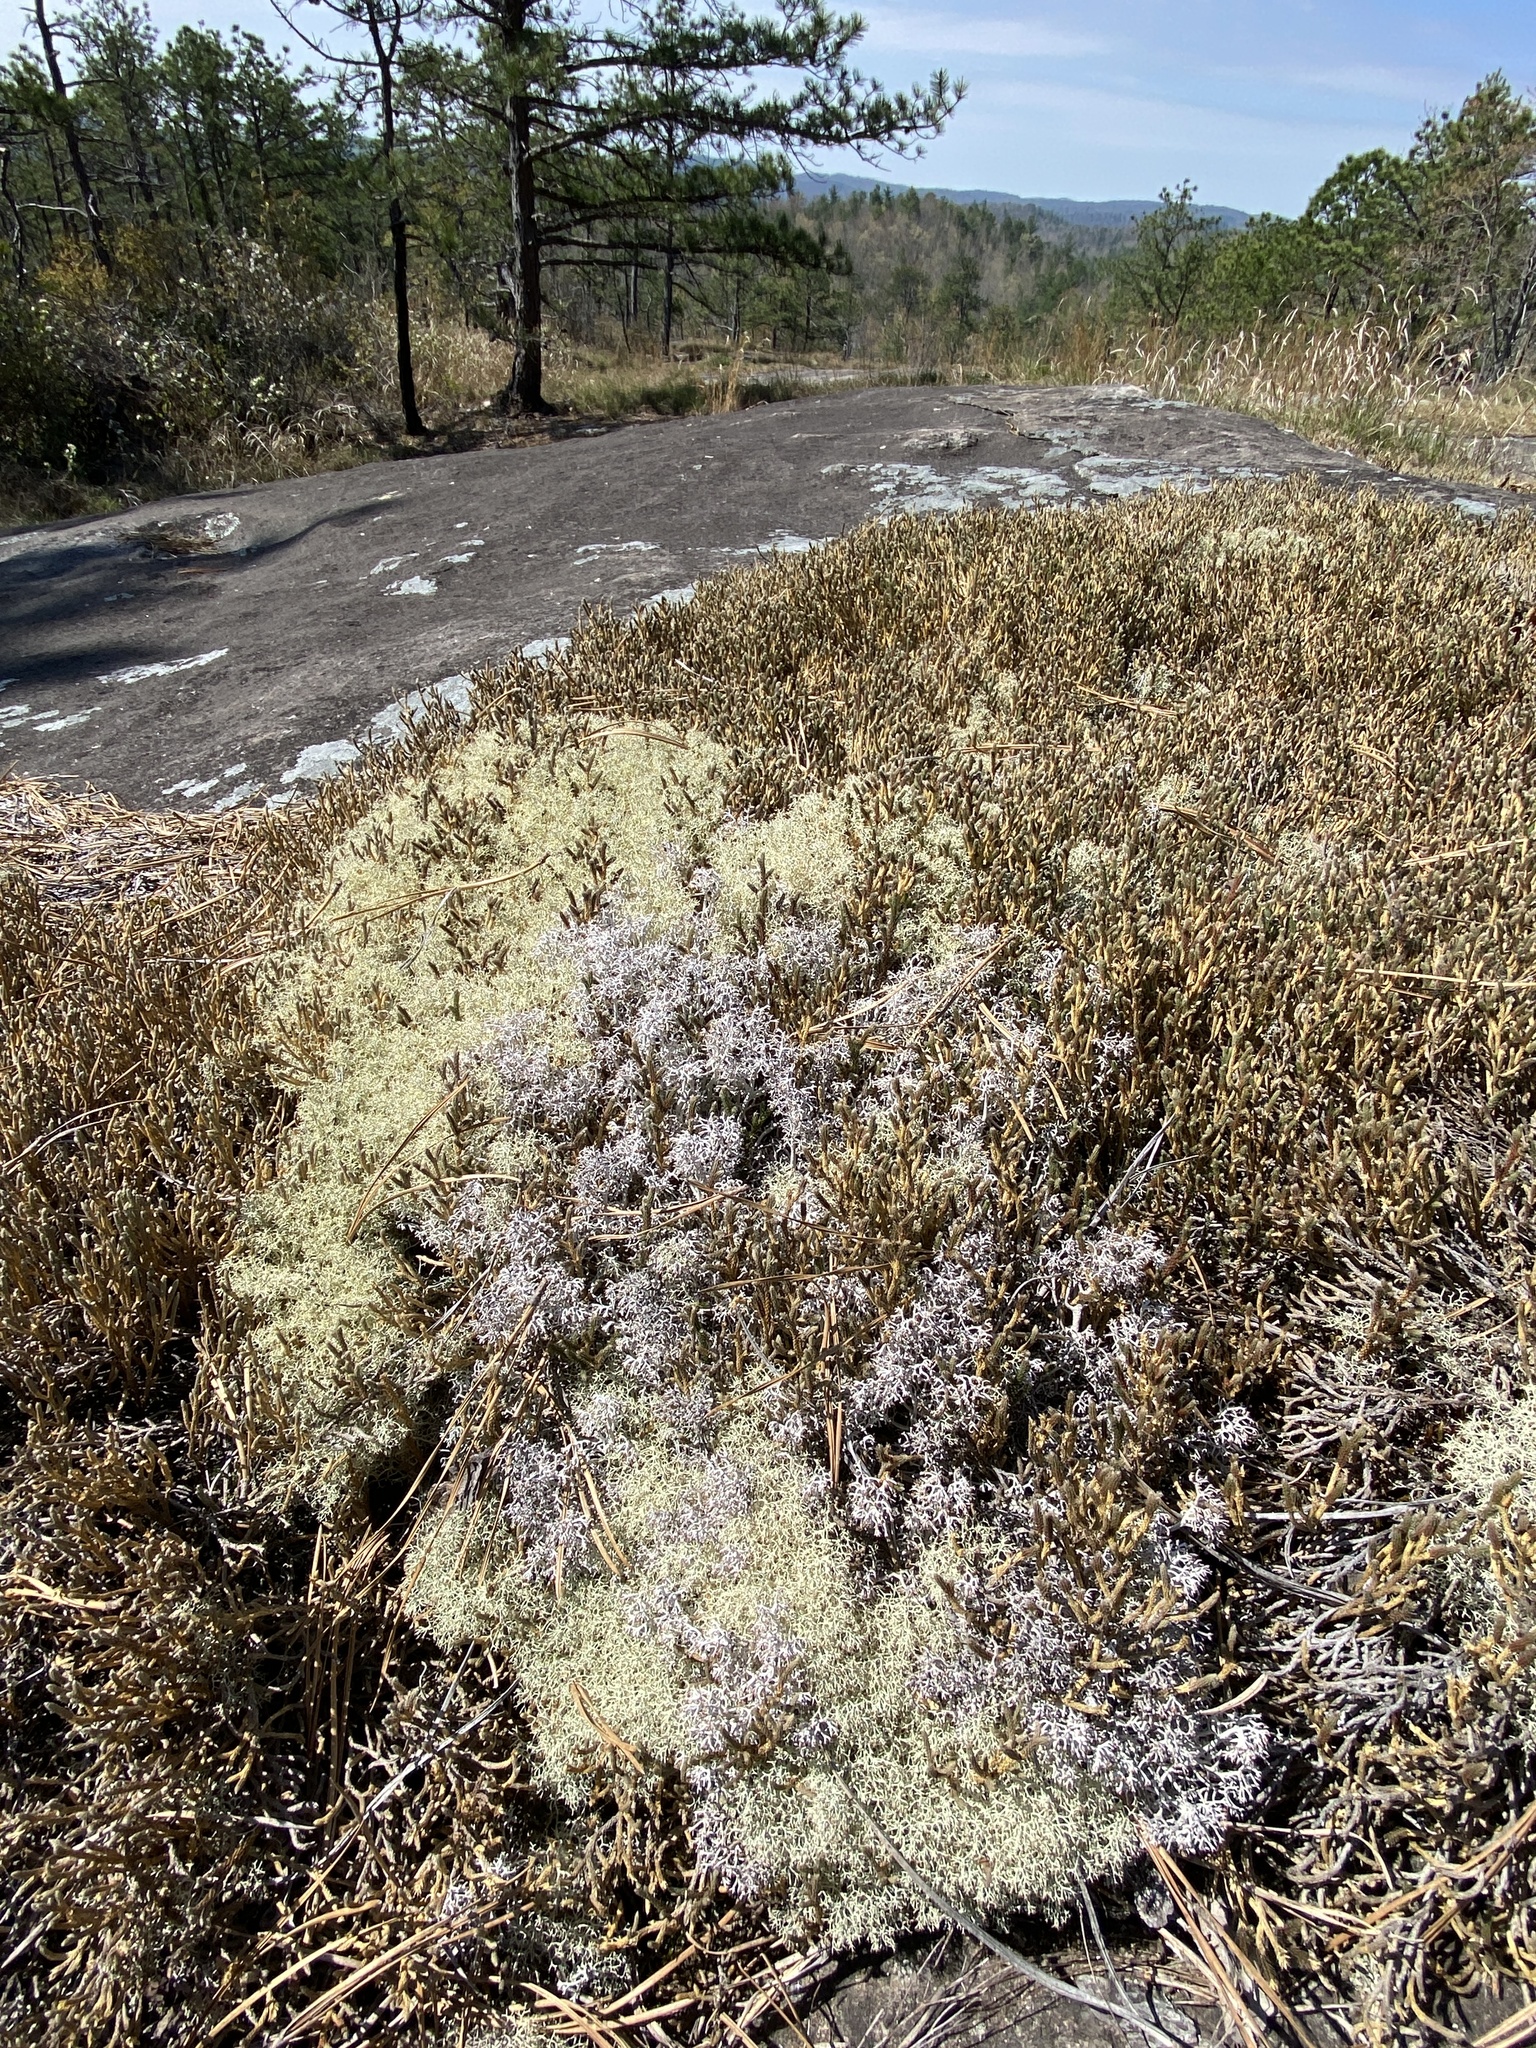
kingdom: Plantae
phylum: Tracheophyta
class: Lycopodiopsida
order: Selaginellales
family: Selaginellaceae
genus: Selaginella
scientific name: Selaginella tortipila
